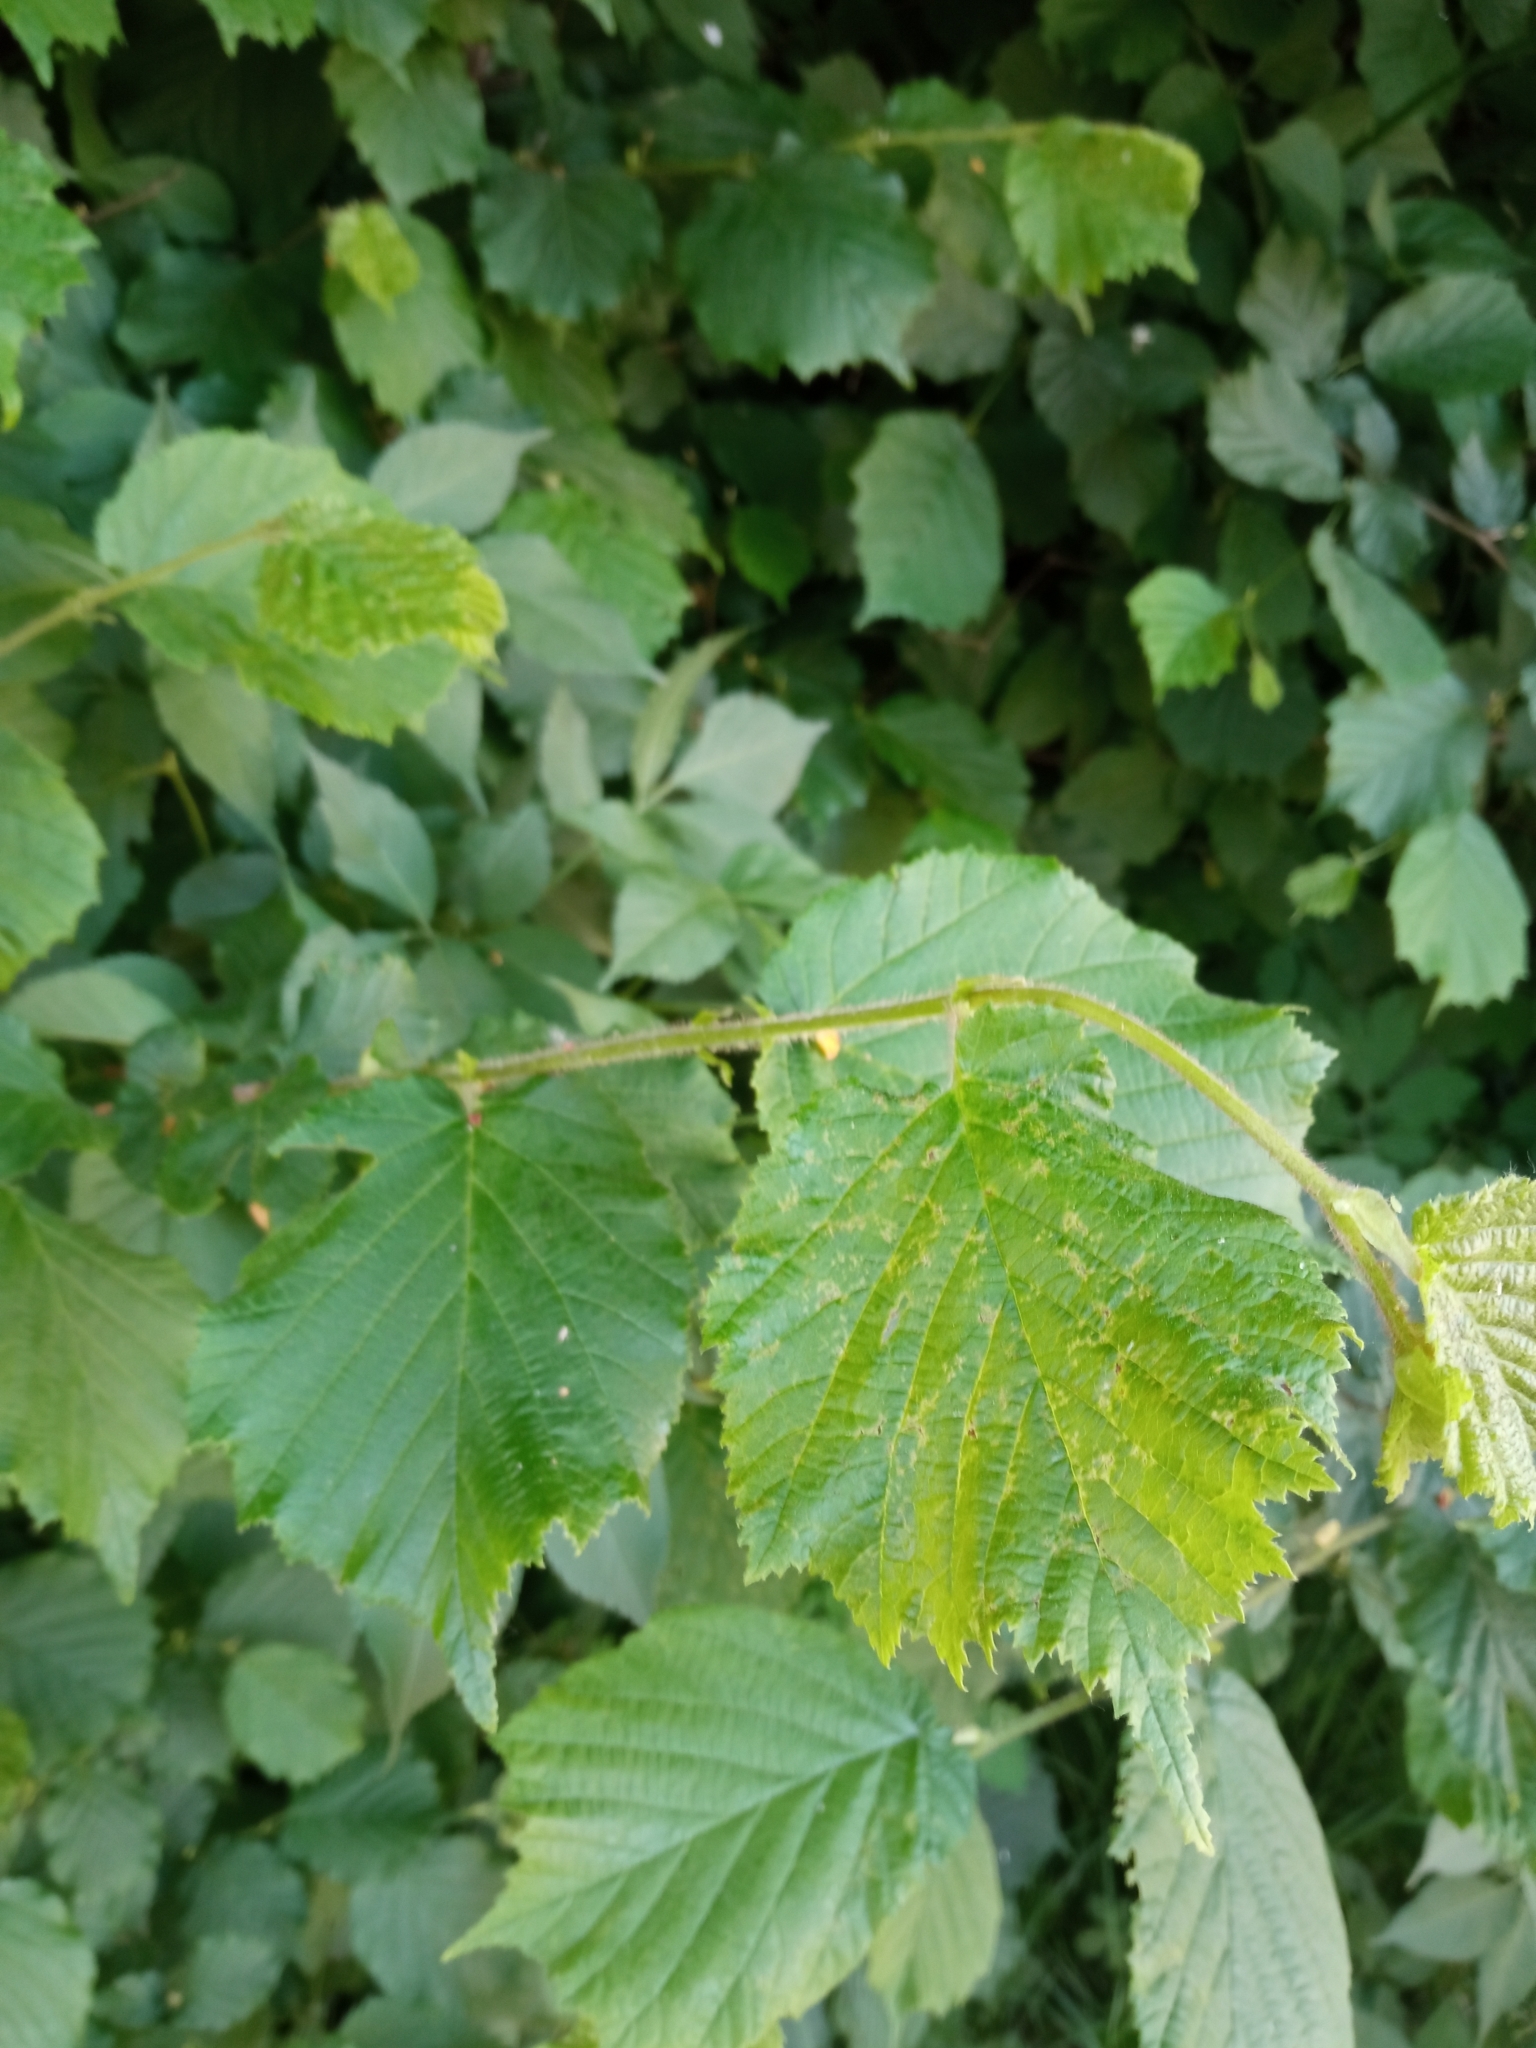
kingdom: Plantae
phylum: Tracheophyta
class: Magnoliopsida
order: Fagales
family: Betulaceae
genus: Corylus
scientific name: Corylus avellana
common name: European hazel
